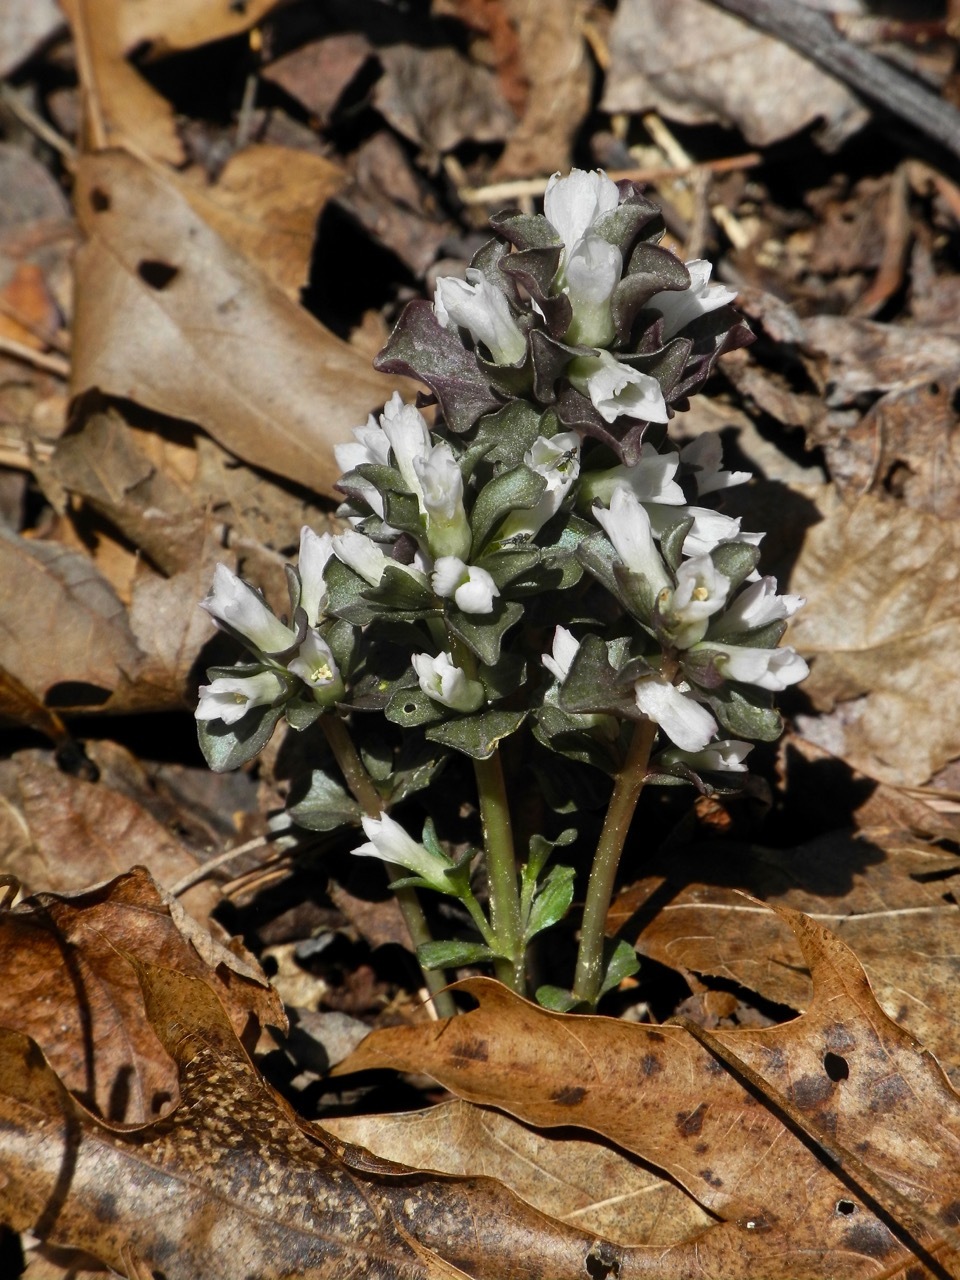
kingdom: Plantae
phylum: Tracheophyta
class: Magnoliopsida
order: Gentianales
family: Gentianaceae
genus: Obolaria
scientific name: Obolaria virginica
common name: Pennywort
